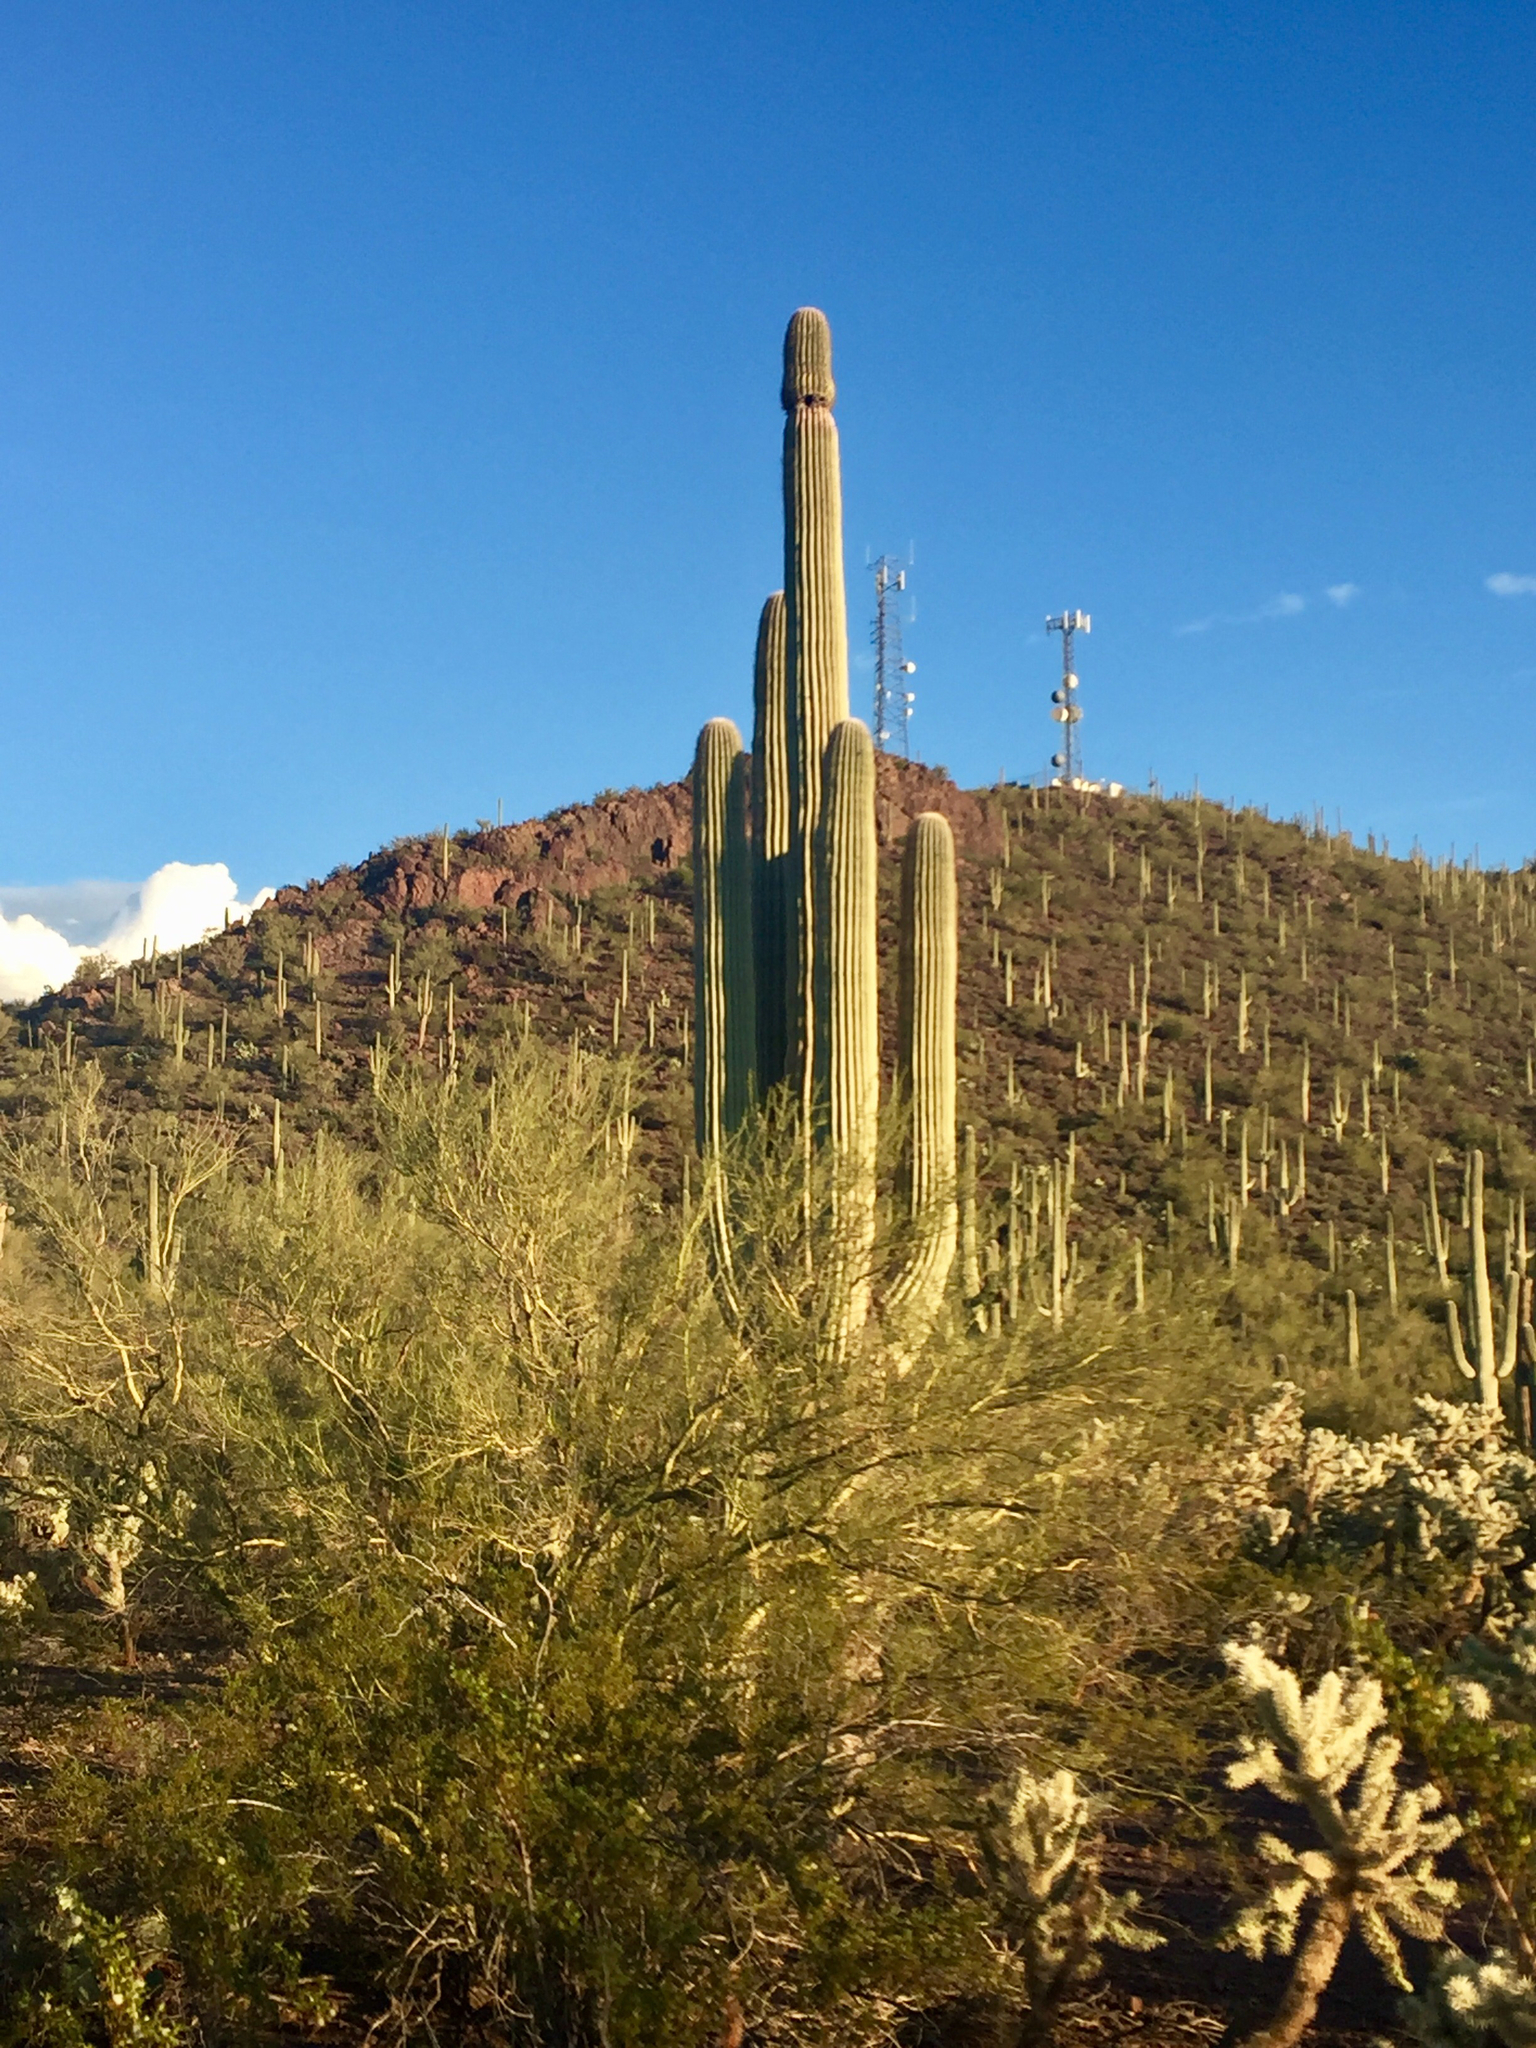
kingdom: Plantae
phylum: Tracheophyta
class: Magnoliopsida
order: Caryophyllales
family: Cactaceae
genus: Carnegiea
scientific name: Carnegiea gigantea
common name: Saguaro
